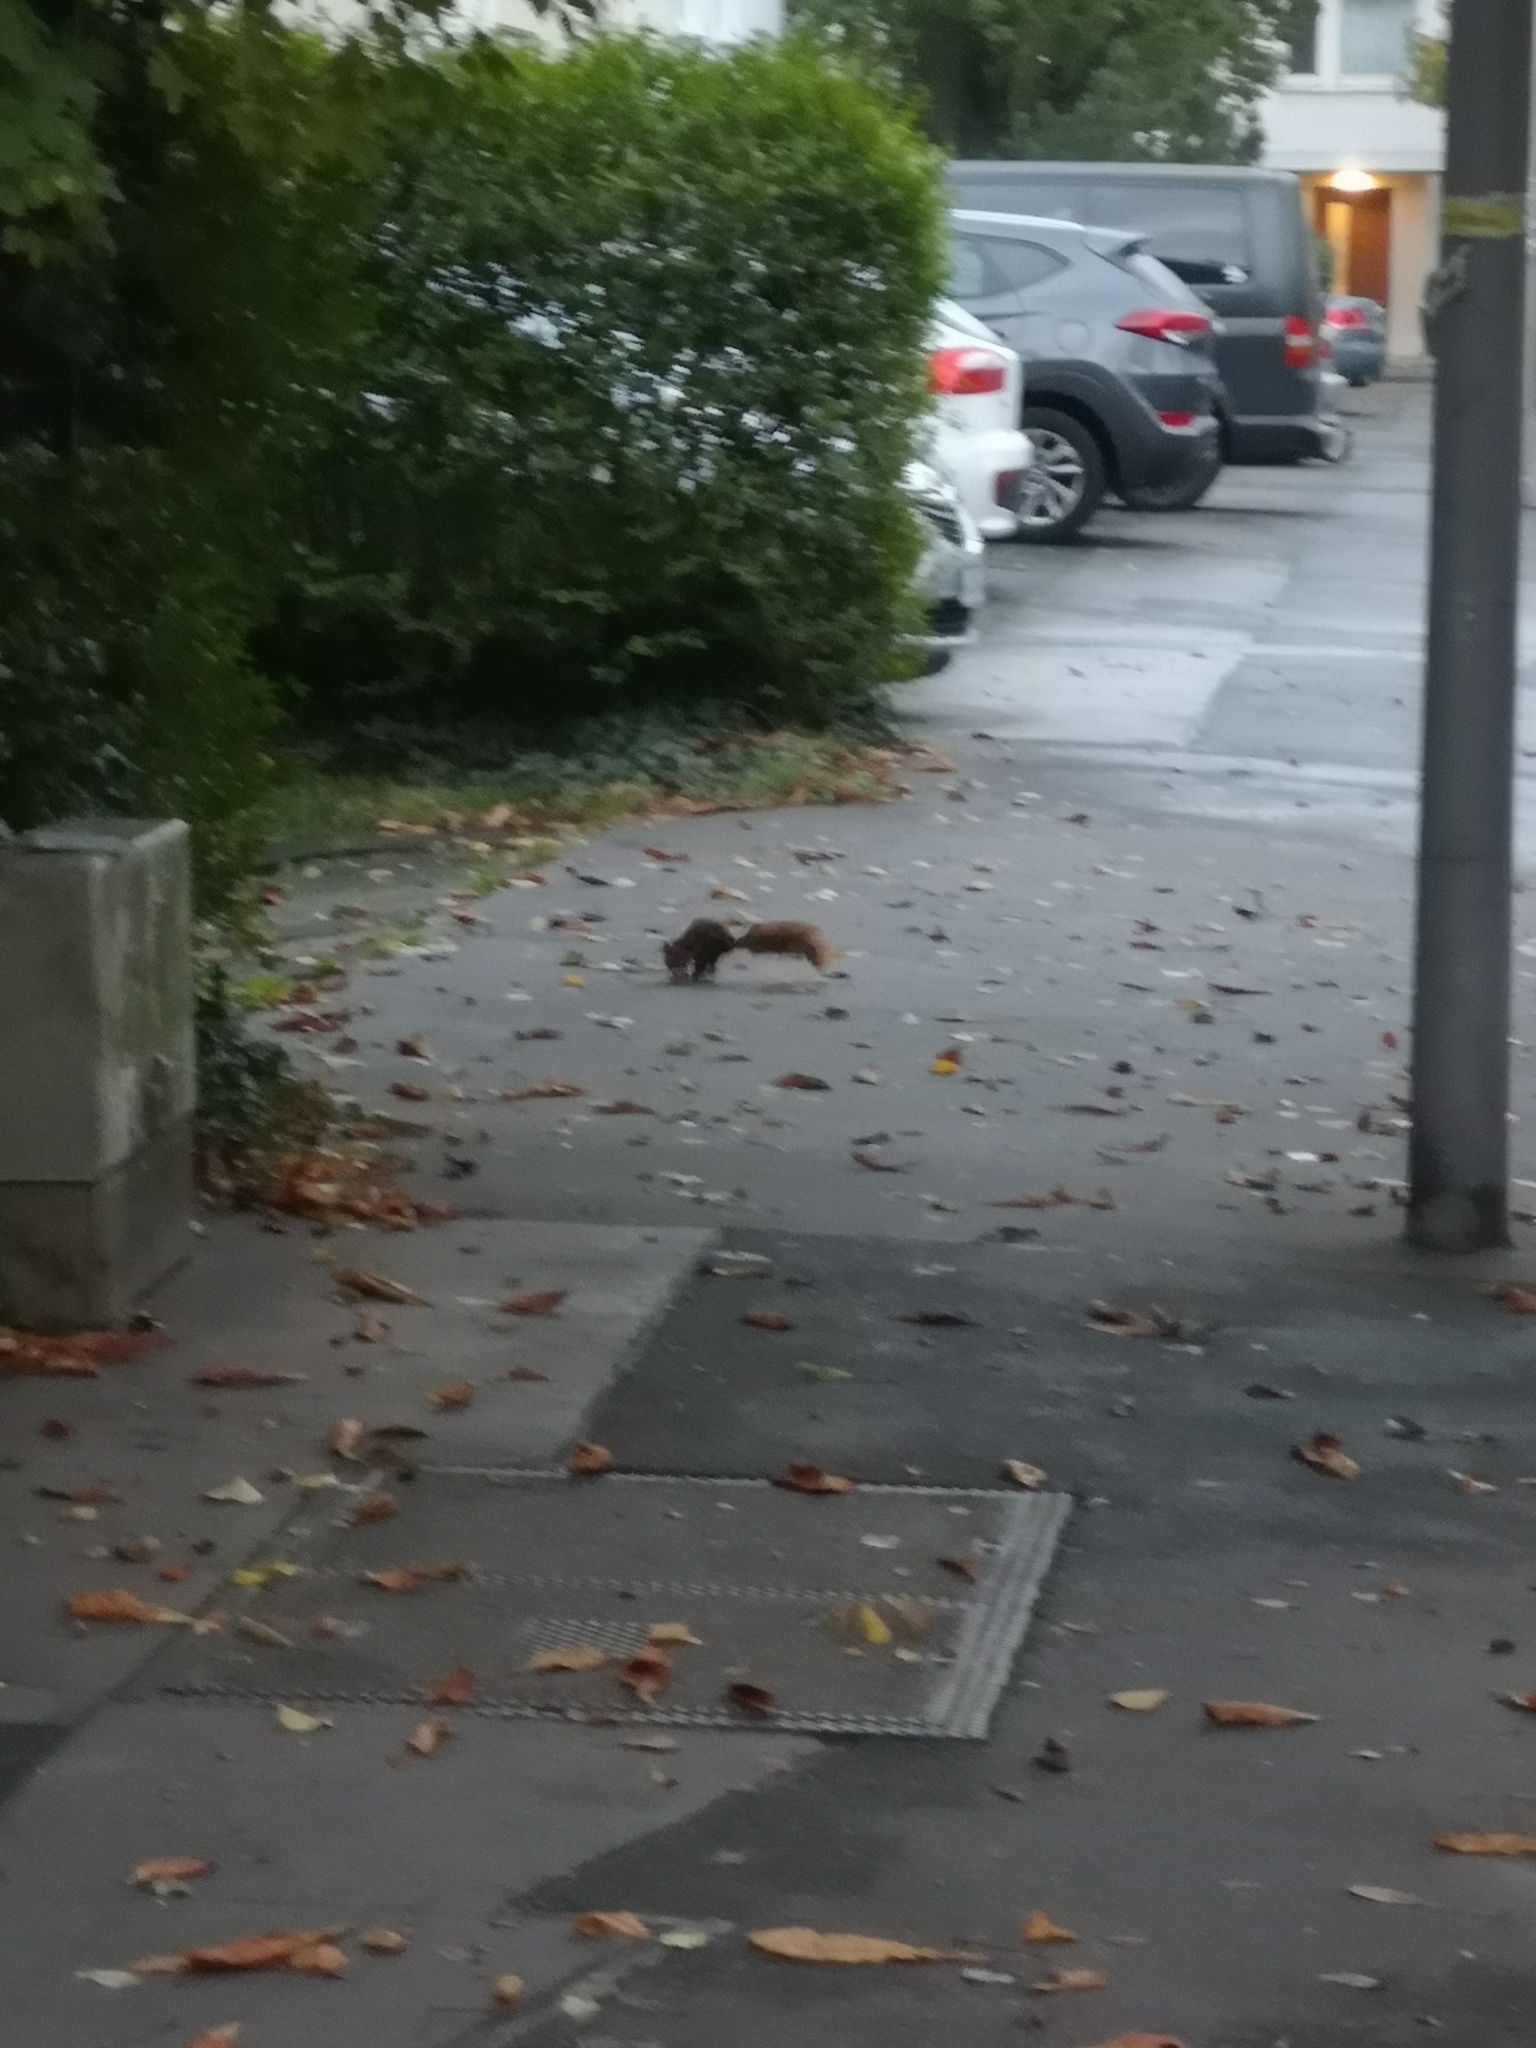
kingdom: Animalia
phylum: Chordata
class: Mammalia
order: Rodentia
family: Sciuridae
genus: Sciurus
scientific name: Sciurus vulgaris
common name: Eurasian red squirrel
